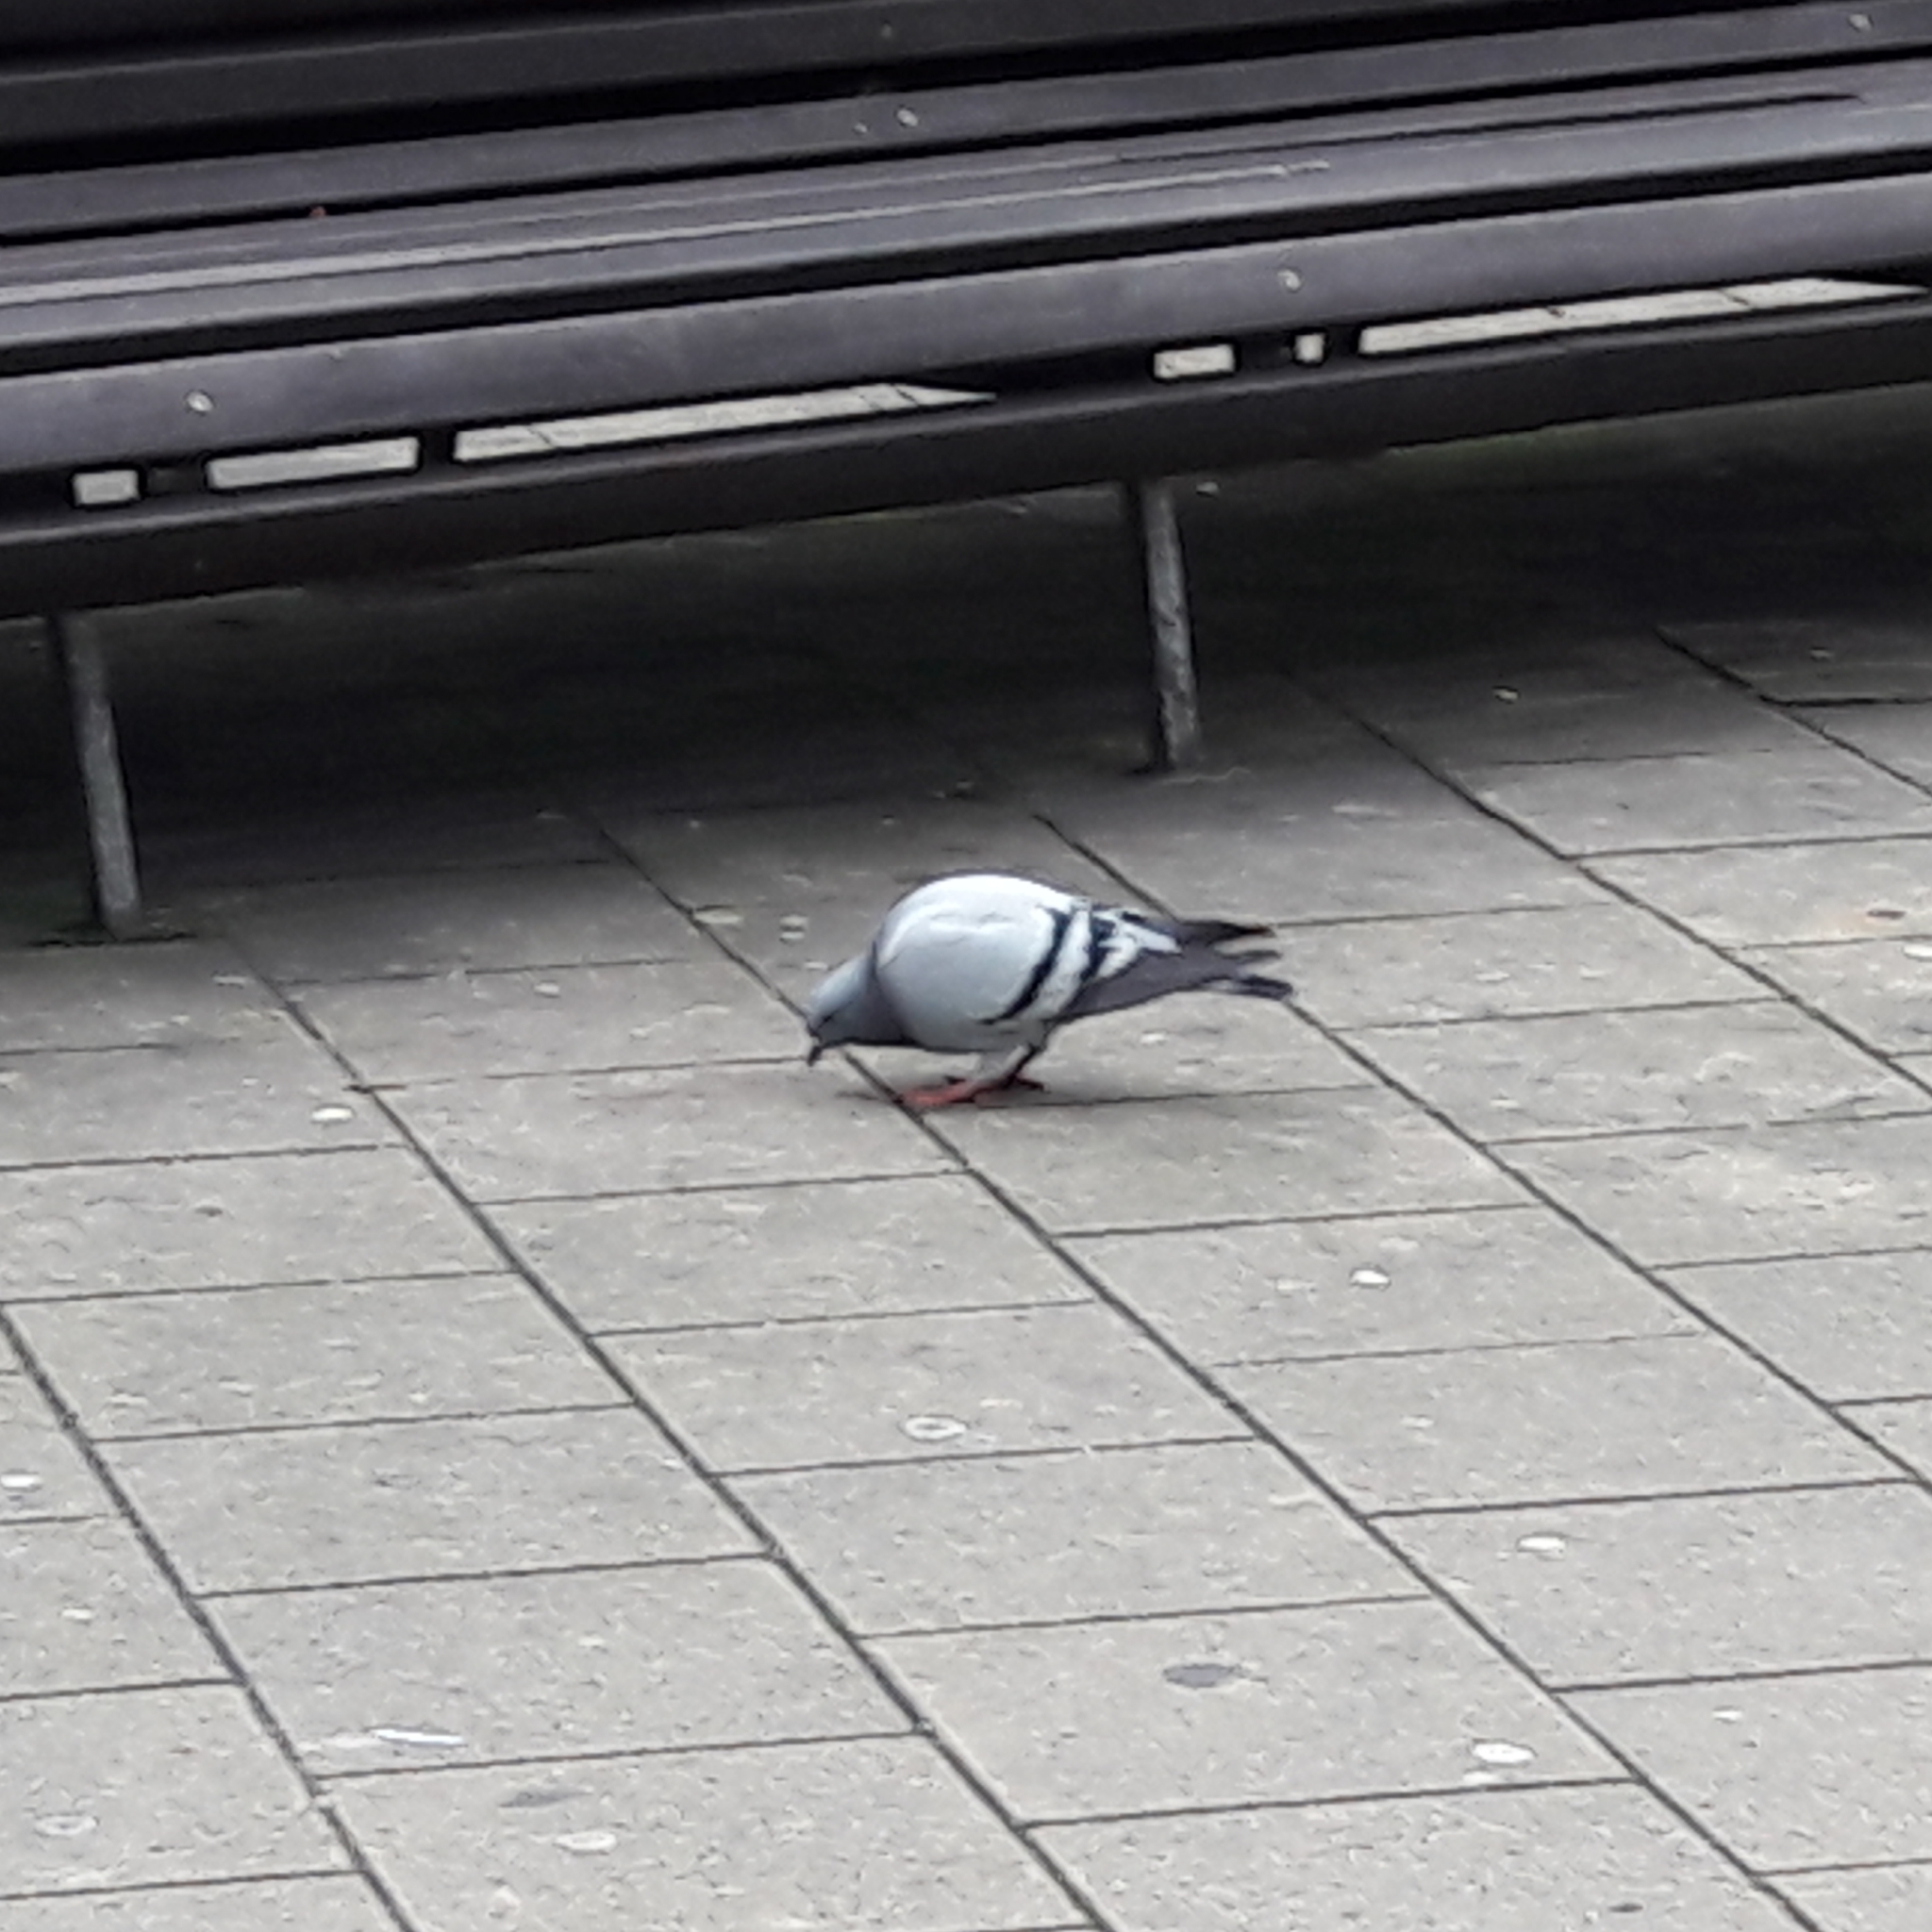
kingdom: Animalia
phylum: Chordata
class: Aves
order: Columbiformes
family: Columbidae
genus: Columba
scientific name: Columba livia
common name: Rock pigeon
